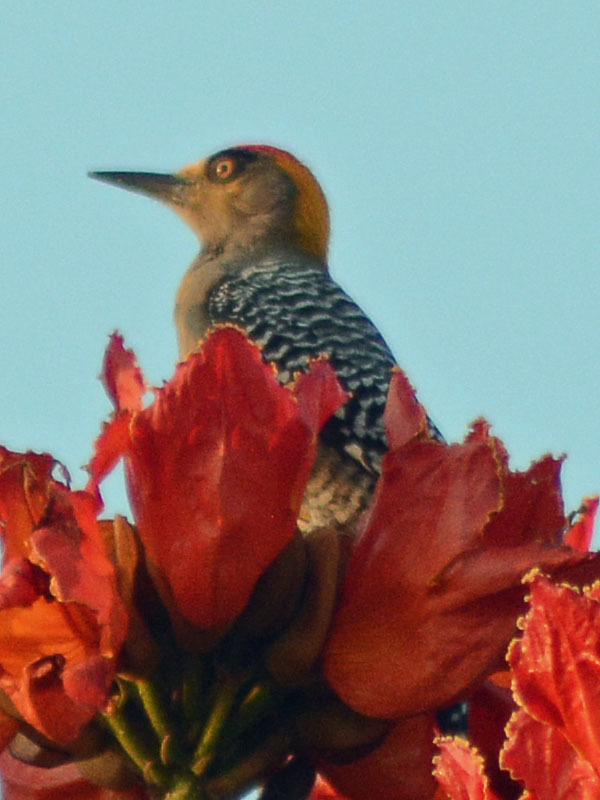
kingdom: Animalia
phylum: Chordata
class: Aves
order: Piciformes
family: Picidae
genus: Melanerpes
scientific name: Melanerpes chrysogenys
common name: Golden-cheeked woodpecker
